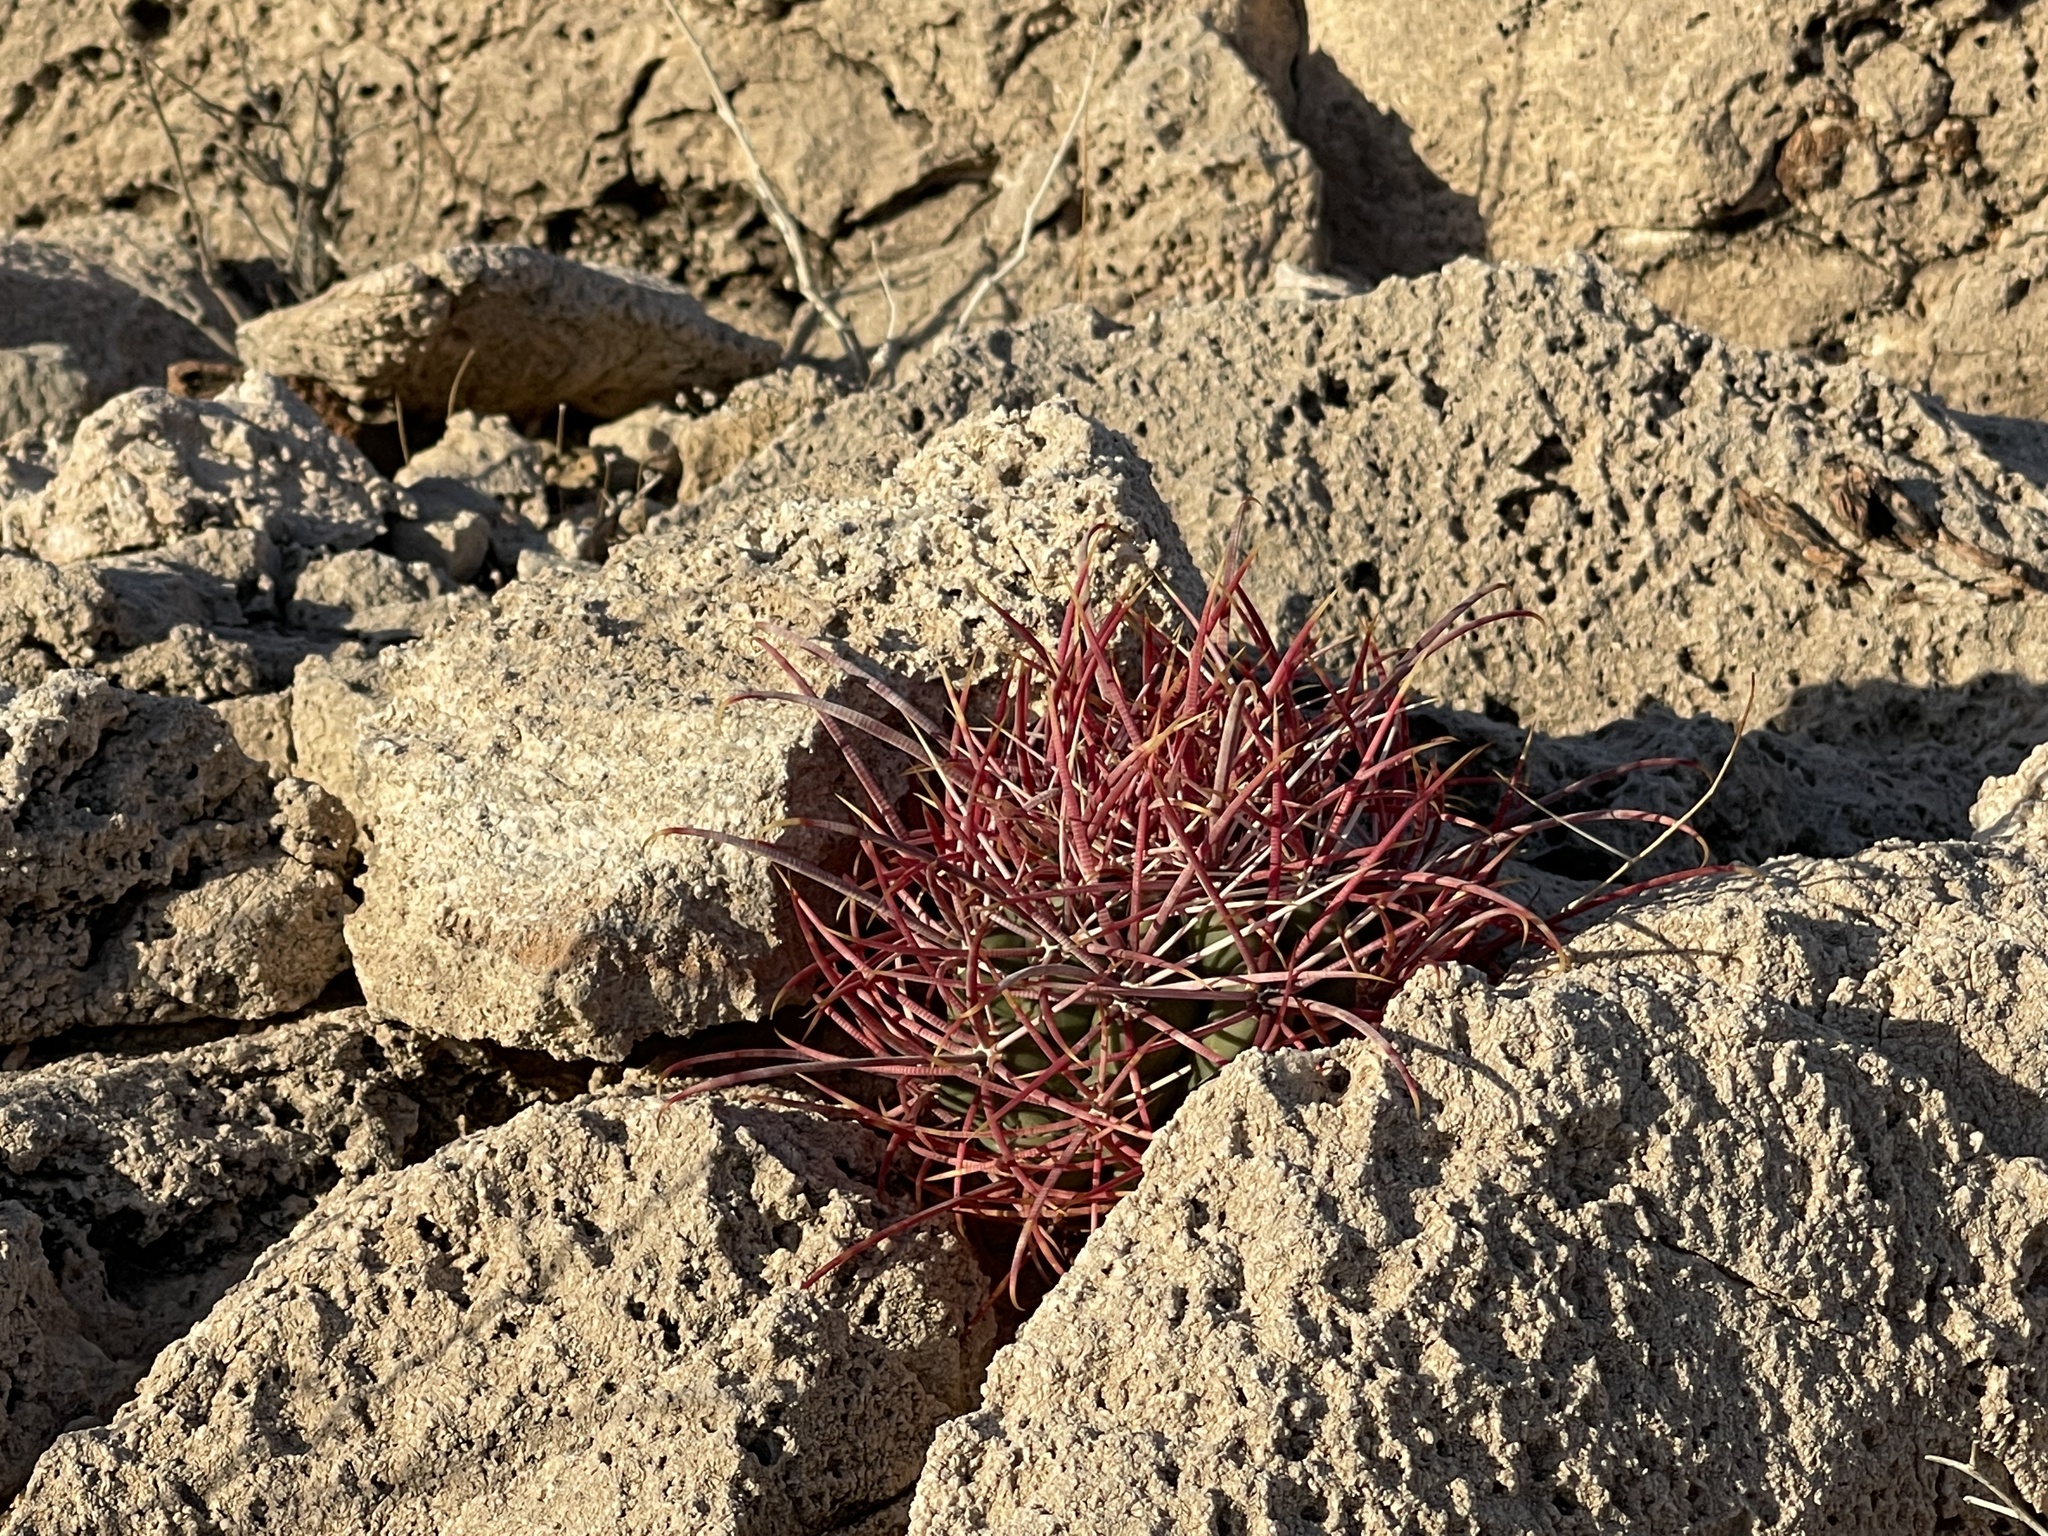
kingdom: Plantae
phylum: Tracheophyta
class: Magnoliopsida
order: Caryophyllales
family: Cactaceae
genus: Ferocactus
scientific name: Ferocactus cylindraceus
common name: California barrel cactus
